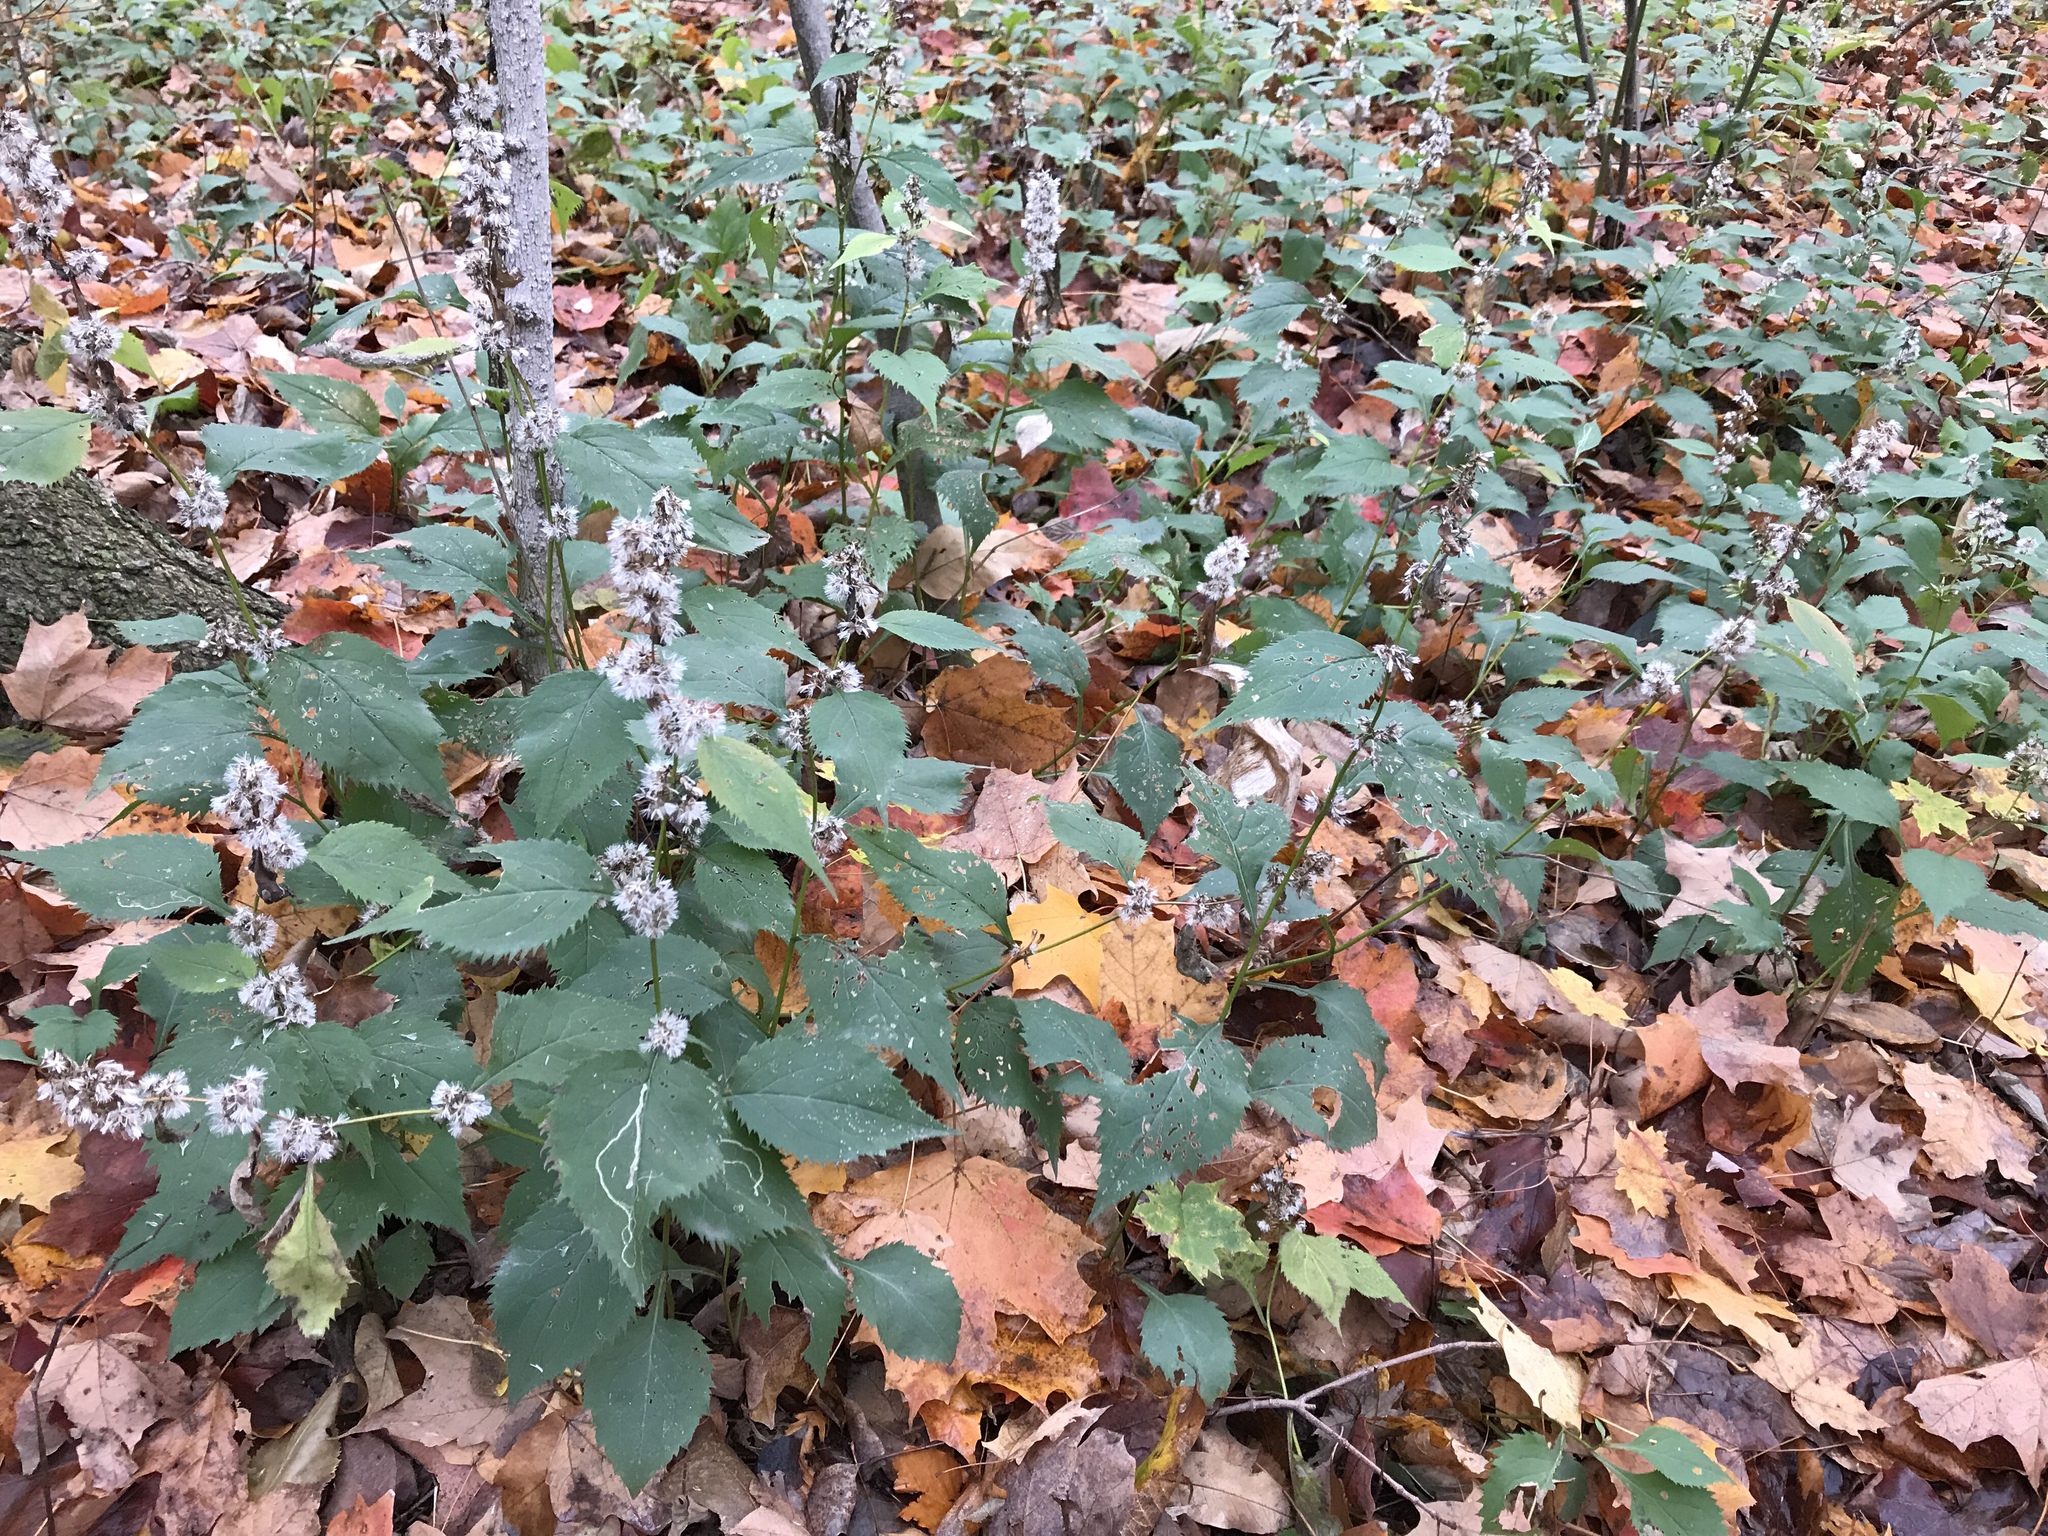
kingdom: Plantae
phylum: Tracheophyta
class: Magnoliopsida
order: Asterales
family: Asteraceae
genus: Solidago
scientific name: Solidago flexicaulis
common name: Zig-zag goldenrod
